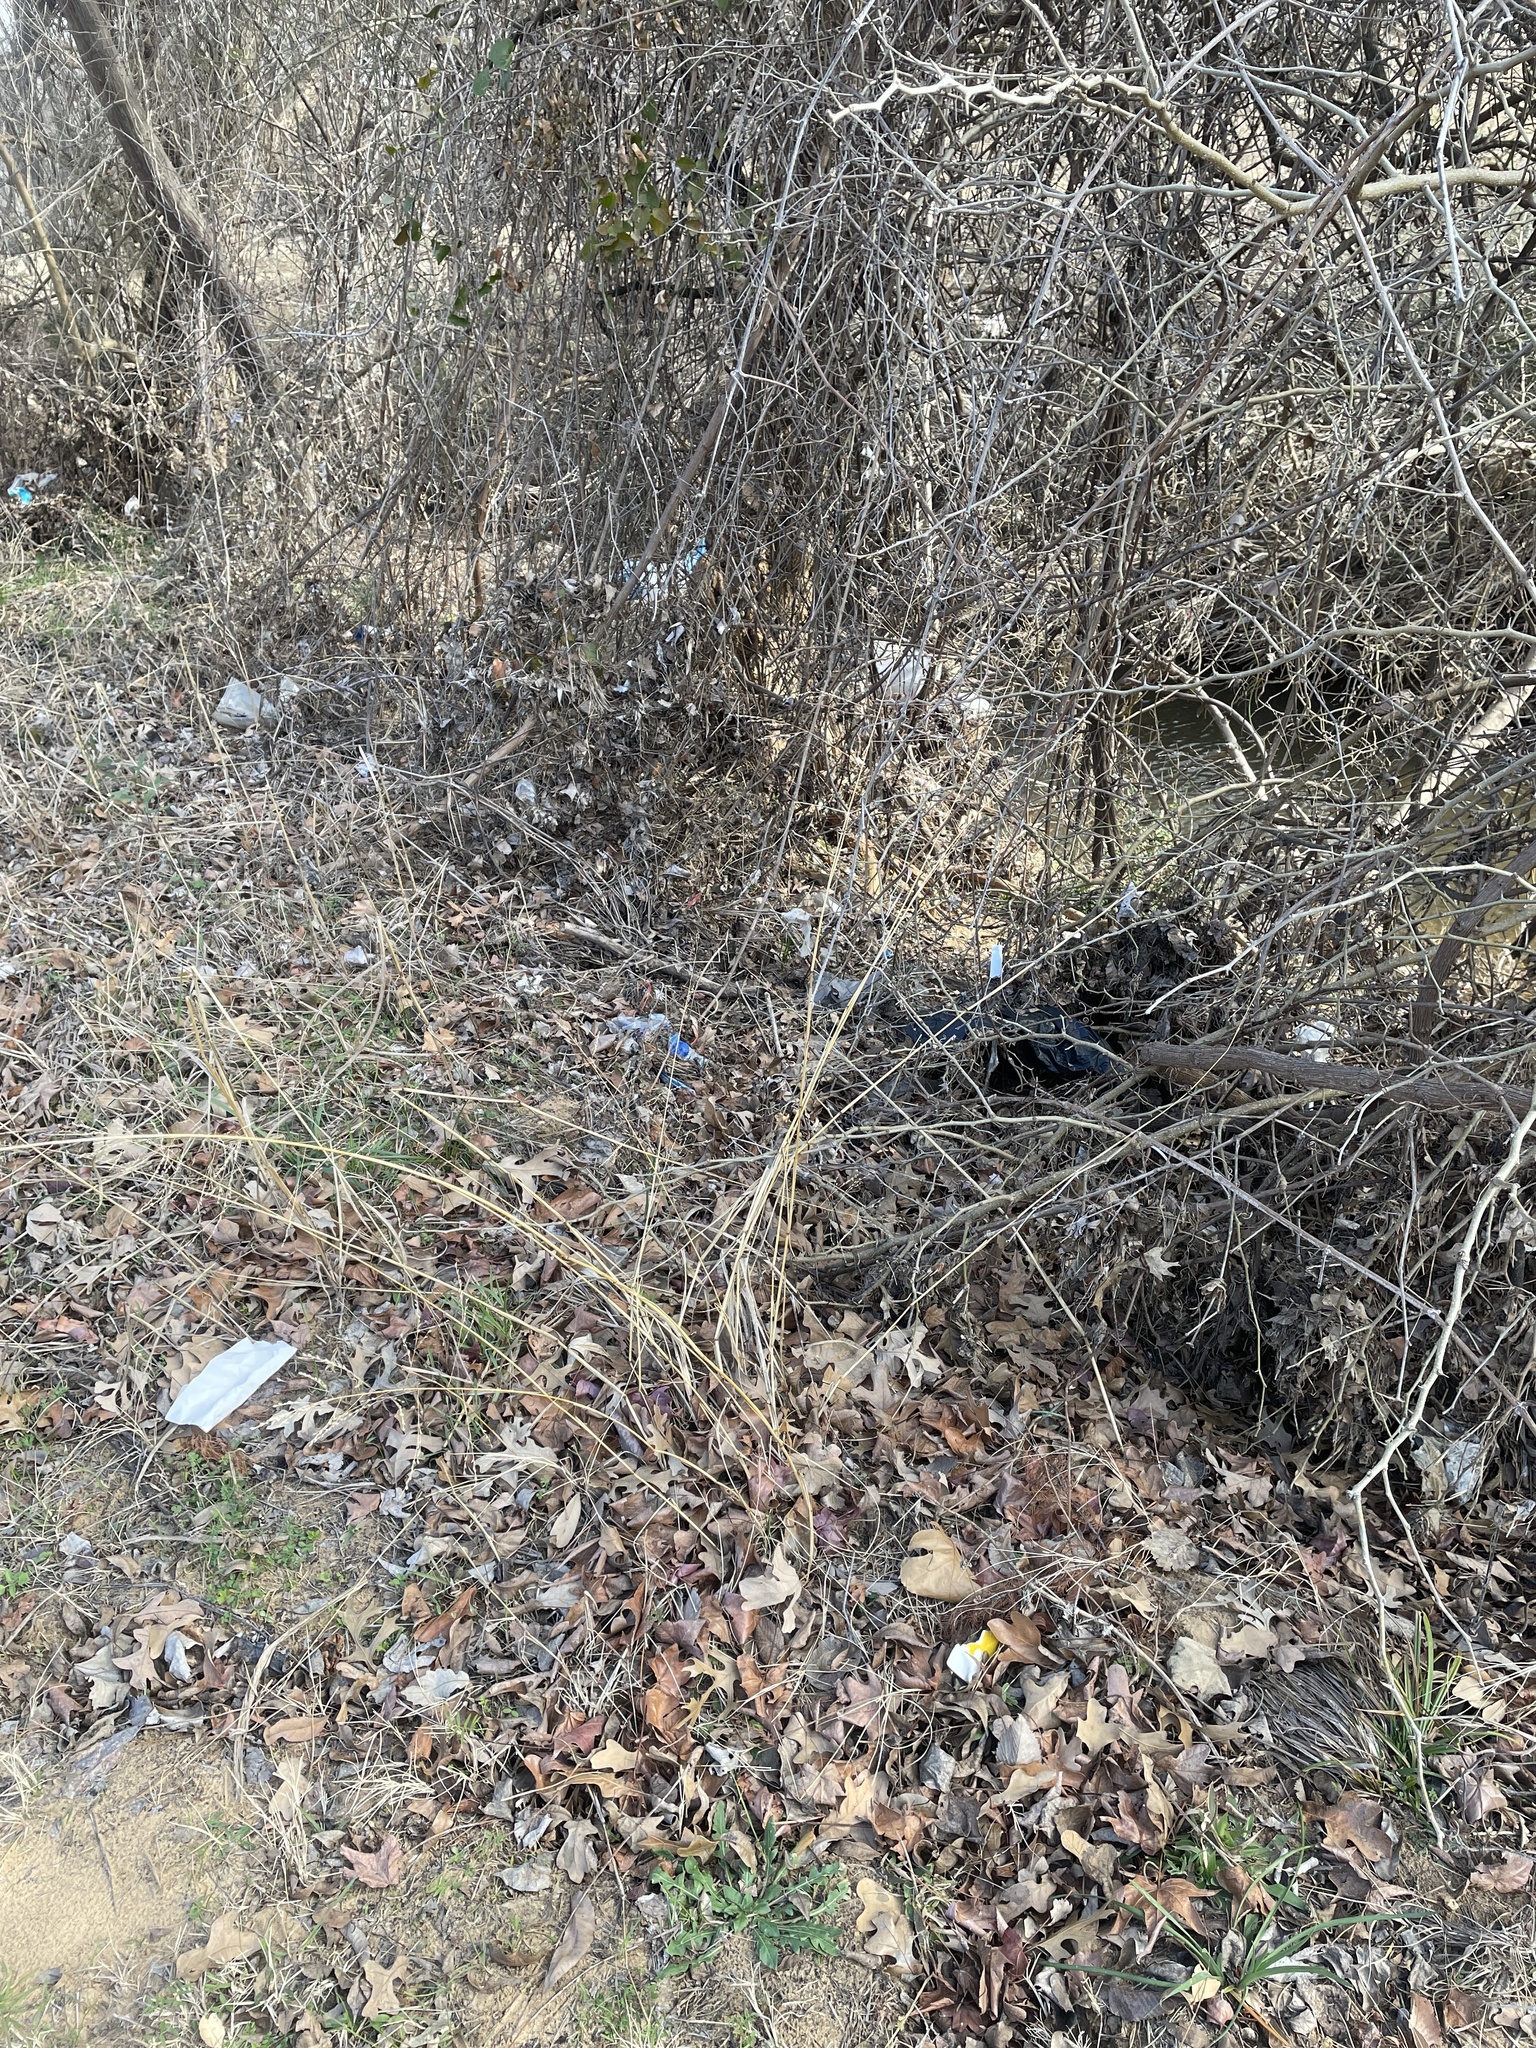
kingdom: Plantae
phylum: Tracheophyta
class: Liliopsida
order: Poales
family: Poaceae
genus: Tridens
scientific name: Tridens flavus
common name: Purpletop
